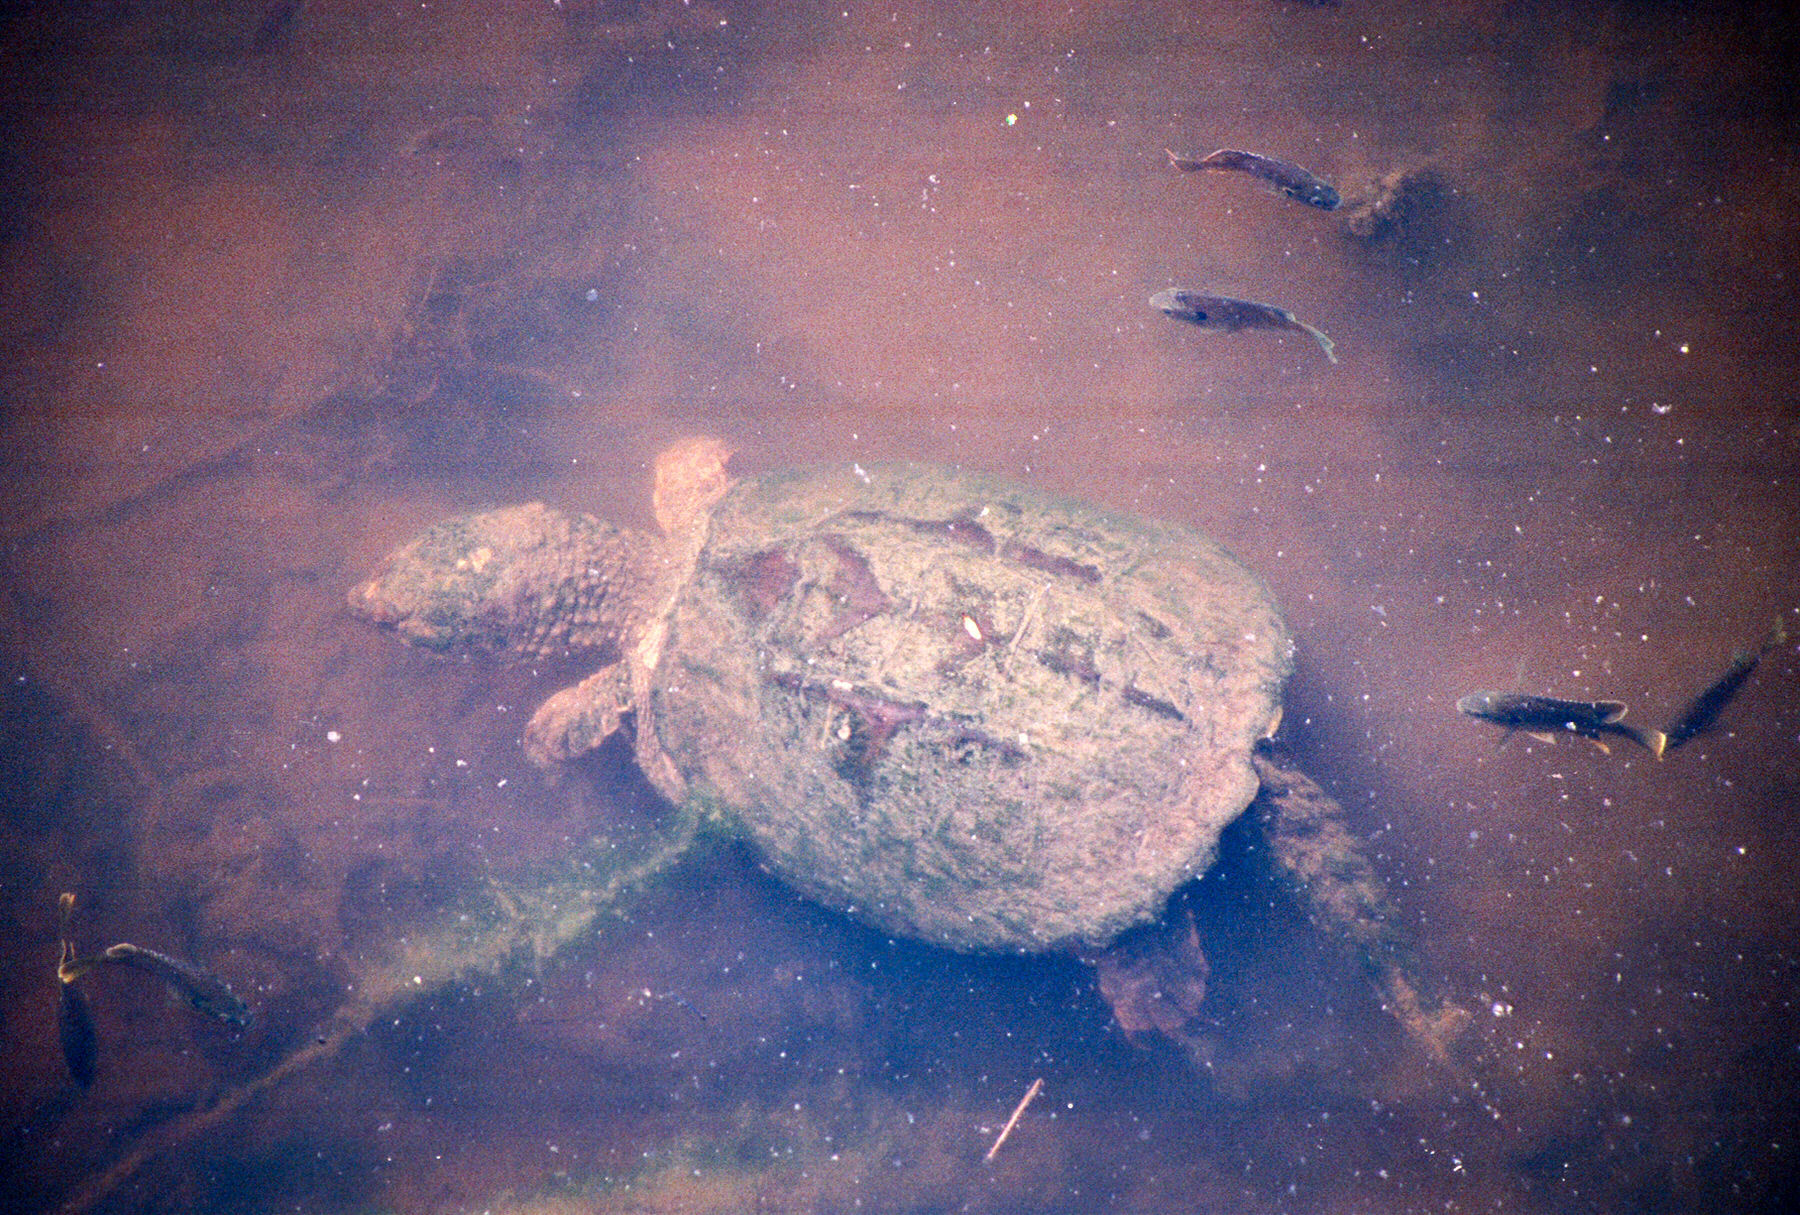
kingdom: Animalia
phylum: Chordata
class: Testudines
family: Chelydridae
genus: Chelydra
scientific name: Chelydra serpentina
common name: Common snapping turtle
